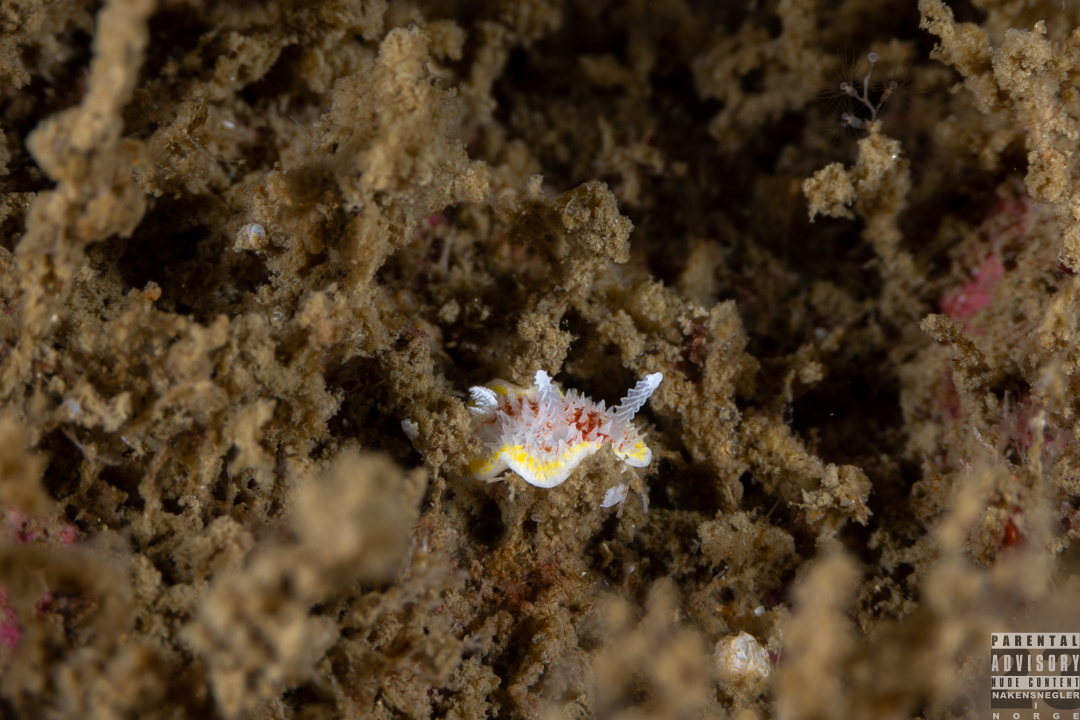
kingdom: Animalia
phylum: Mollusca
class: Gastropoda
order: Nudibranchia
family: Calycidorididae
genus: Diaphorodoris
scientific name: Diaphorodoris luteocincta
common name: Fried egg nudibranch
